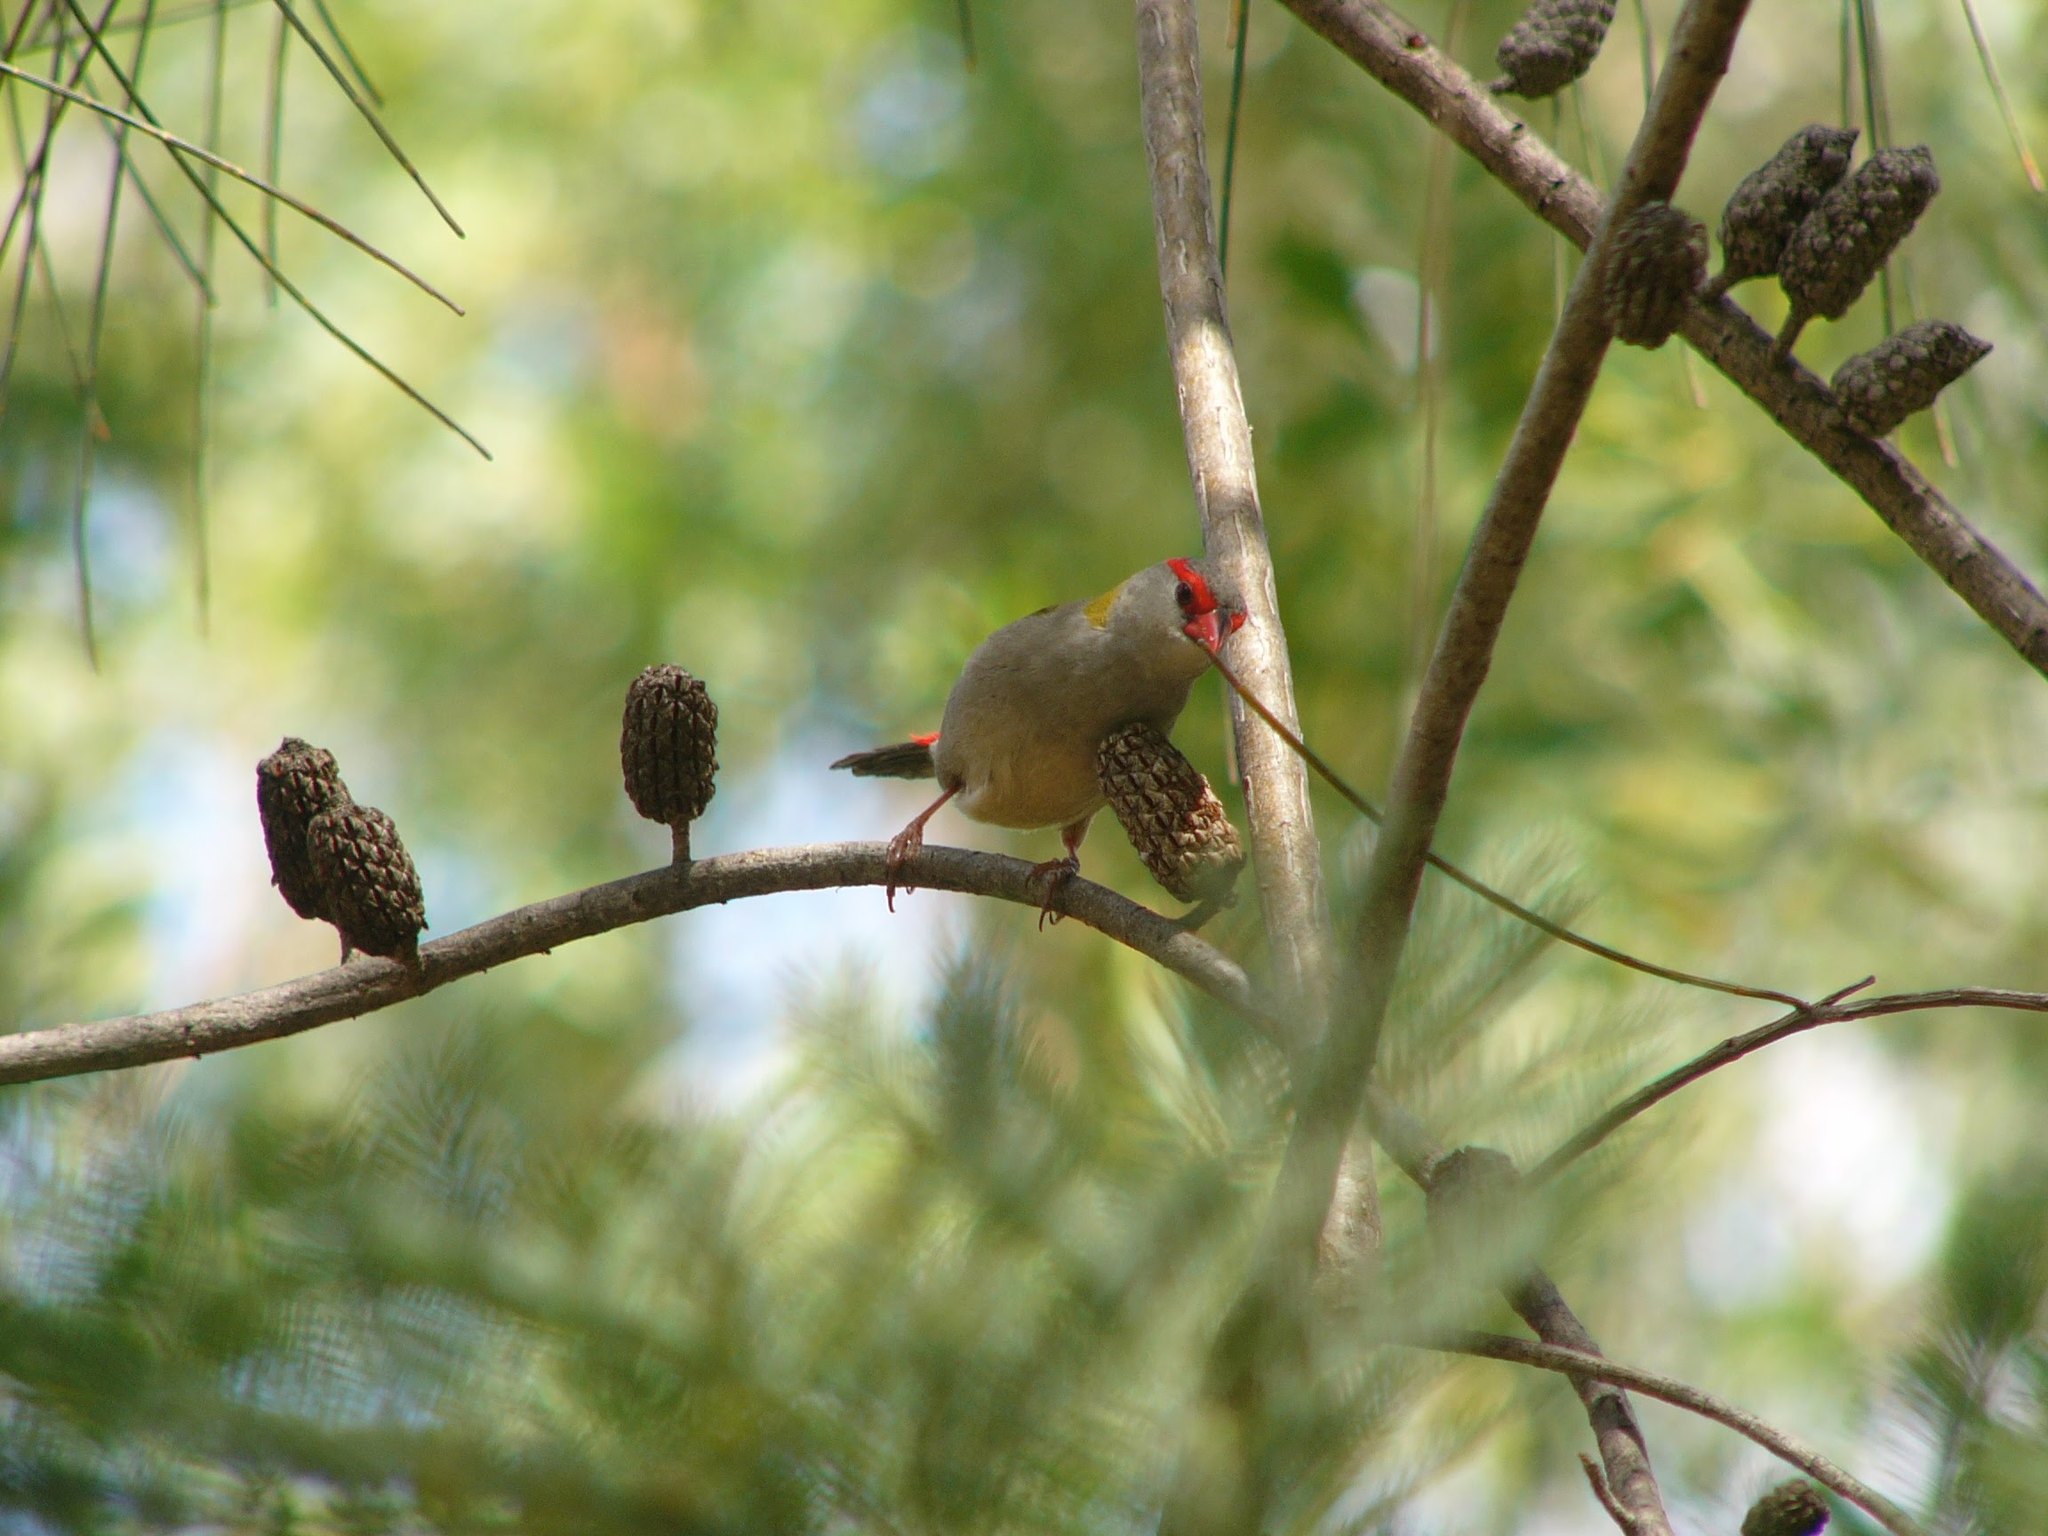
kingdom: Animalia
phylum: Chordata
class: Aves
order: Passeriformes
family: Estrildidae
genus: Neochmia
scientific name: Neochmia temporalis
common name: Red-browed finch
